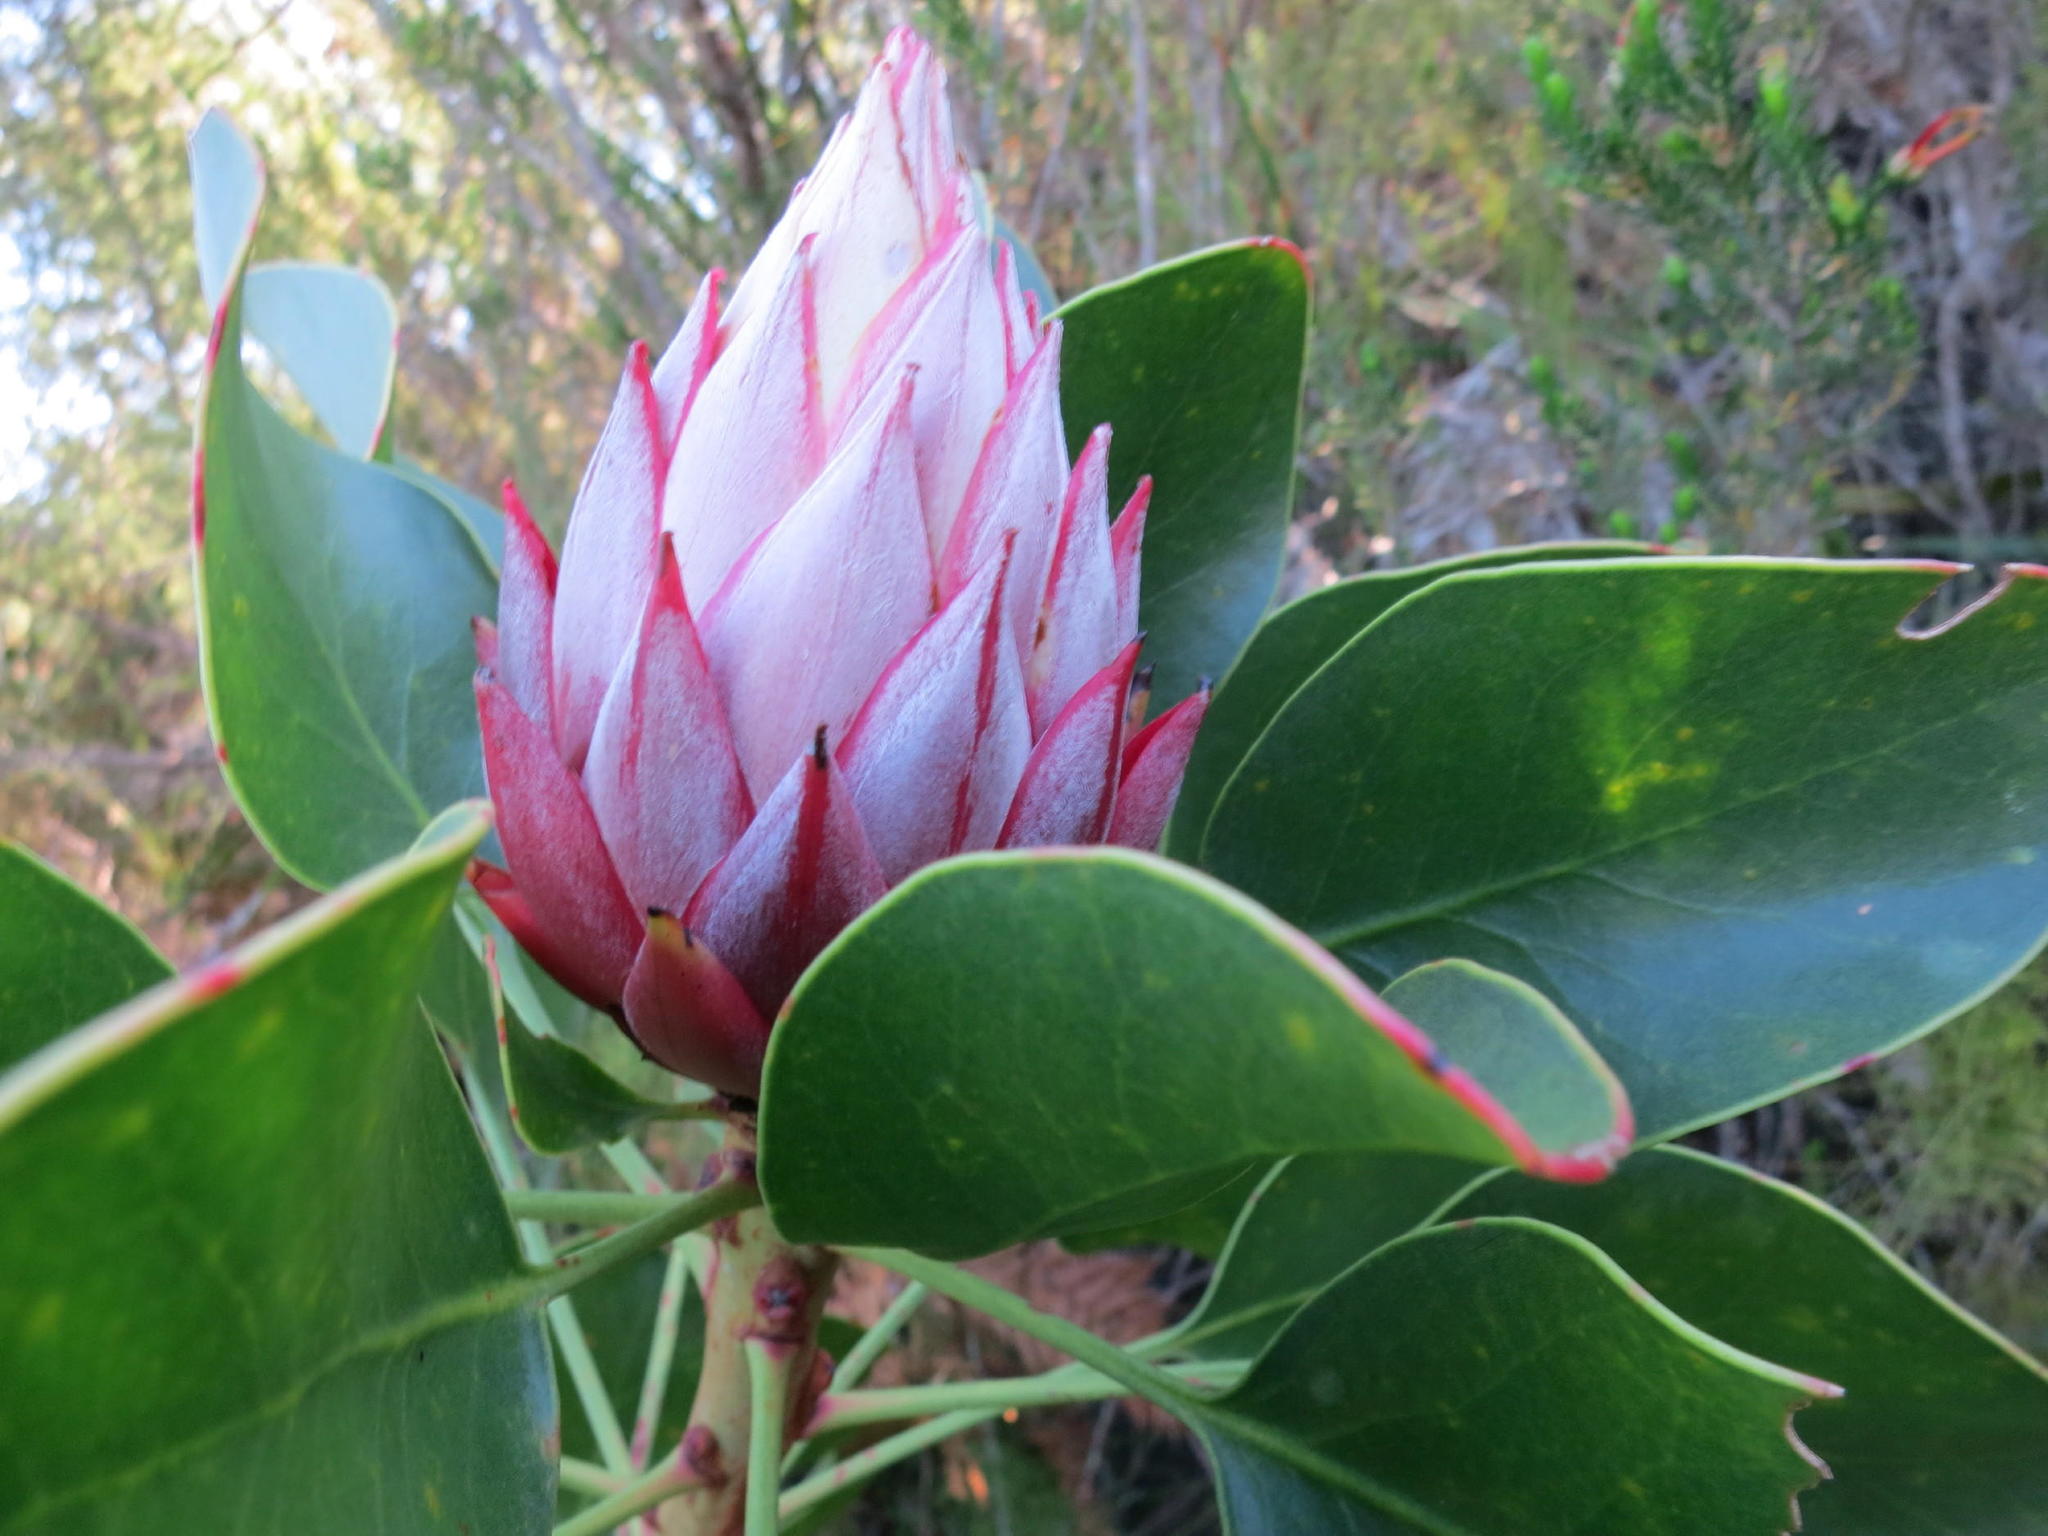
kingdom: Plantae
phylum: Tracheophyta
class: Magnoliopsida
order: Proteales
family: Proteaceae
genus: Protea
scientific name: Protea cynaroides
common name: King protea
